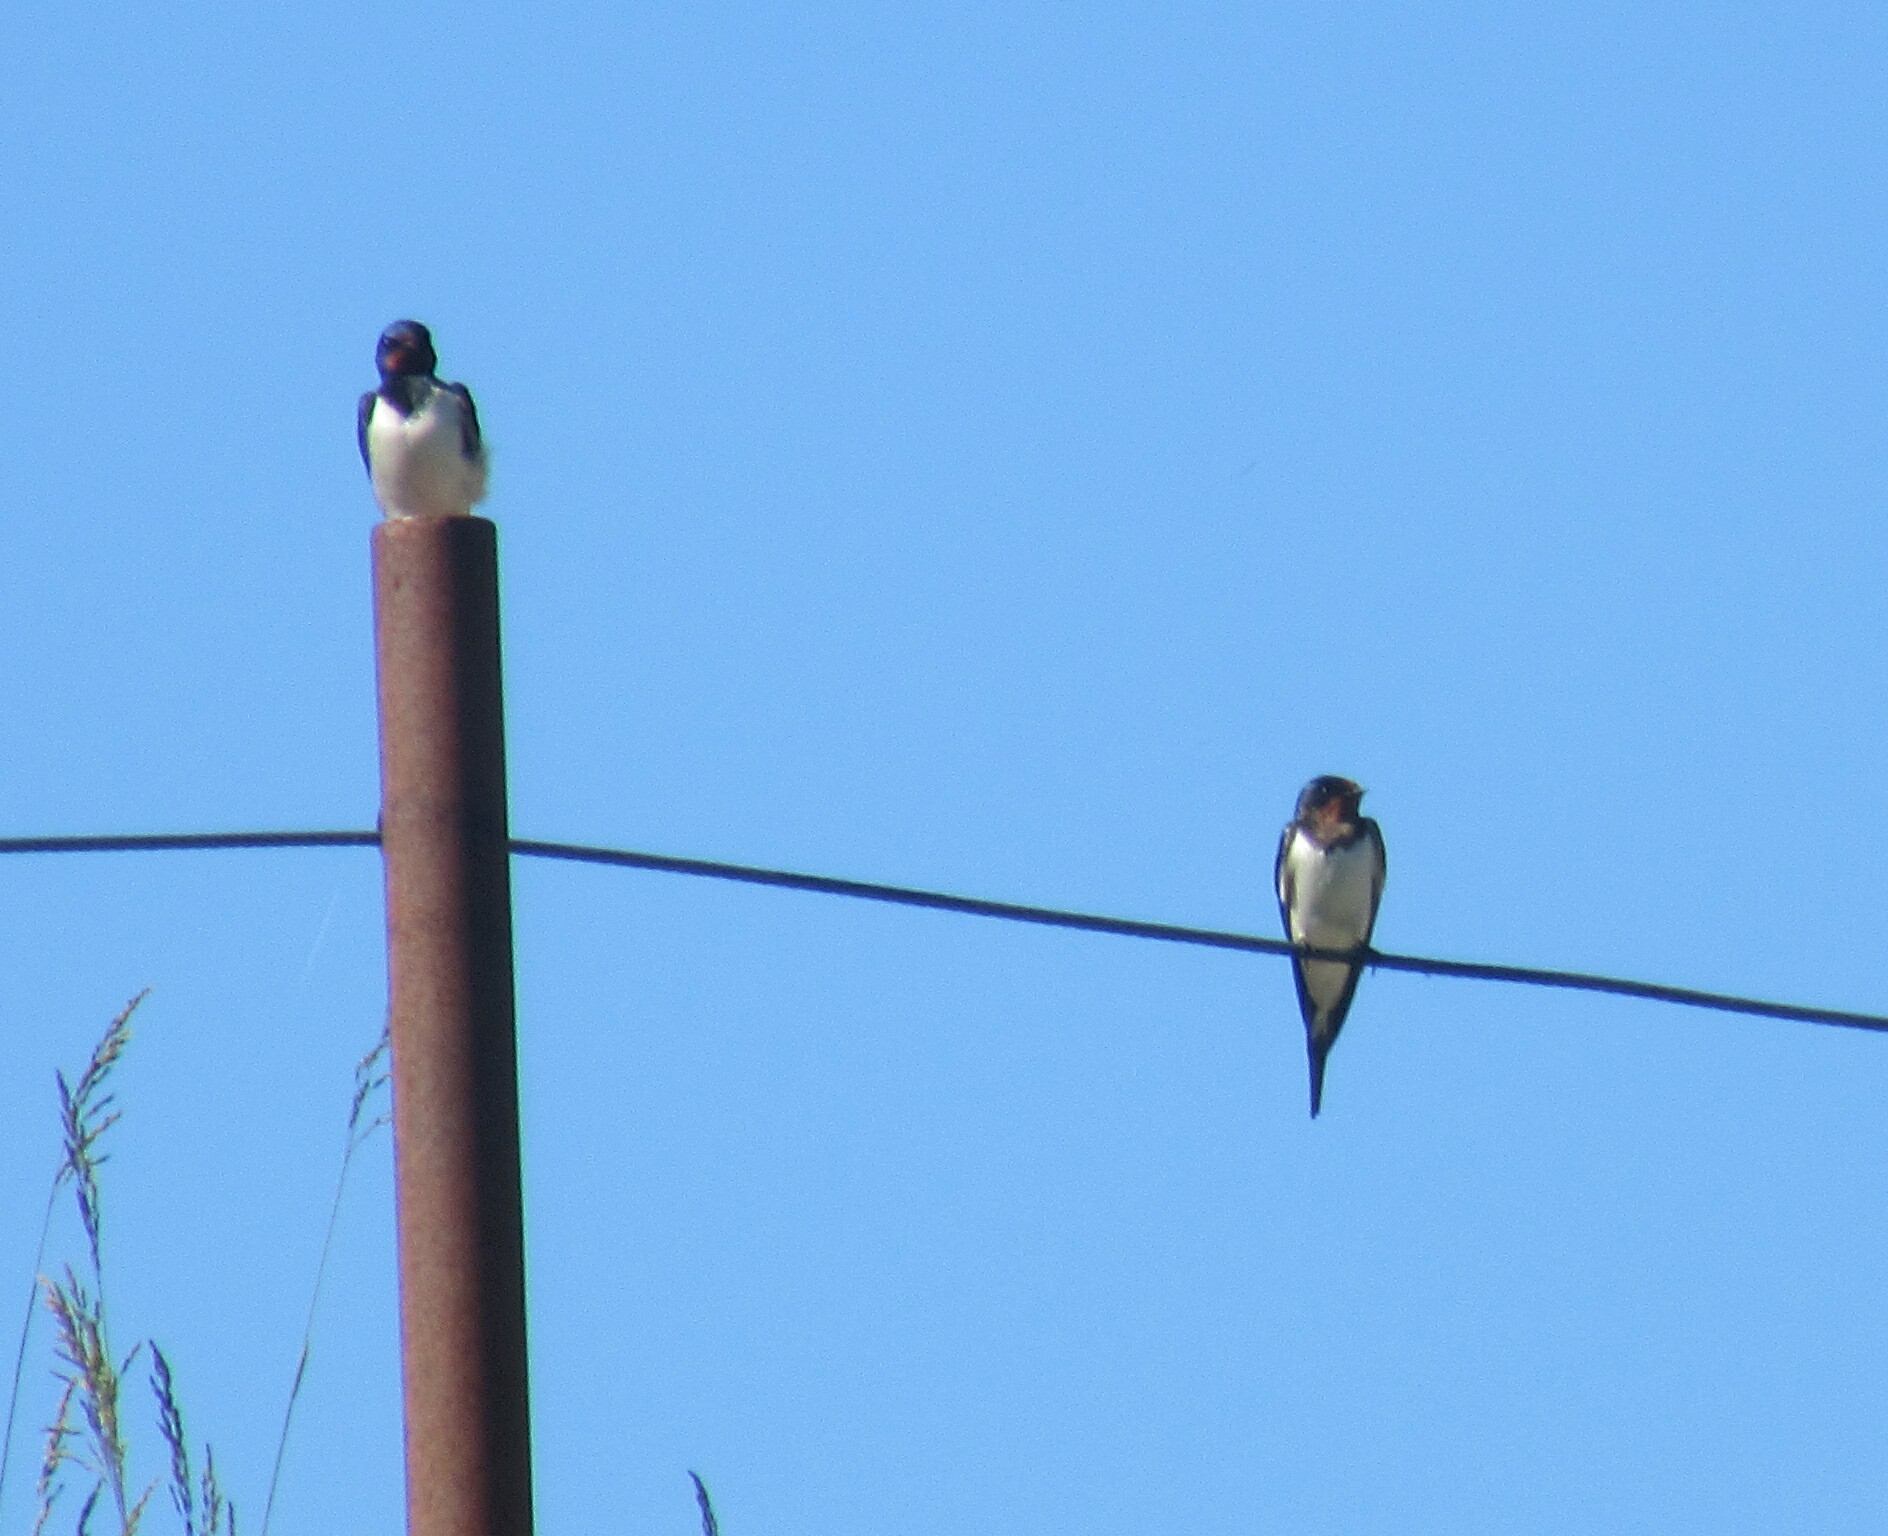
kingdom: Animalia
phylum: Chordata
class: Aves
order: Passeriformes
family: Hirundinidae
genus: Hirundo
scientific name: Hirundo rustica
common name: Barn swallow
